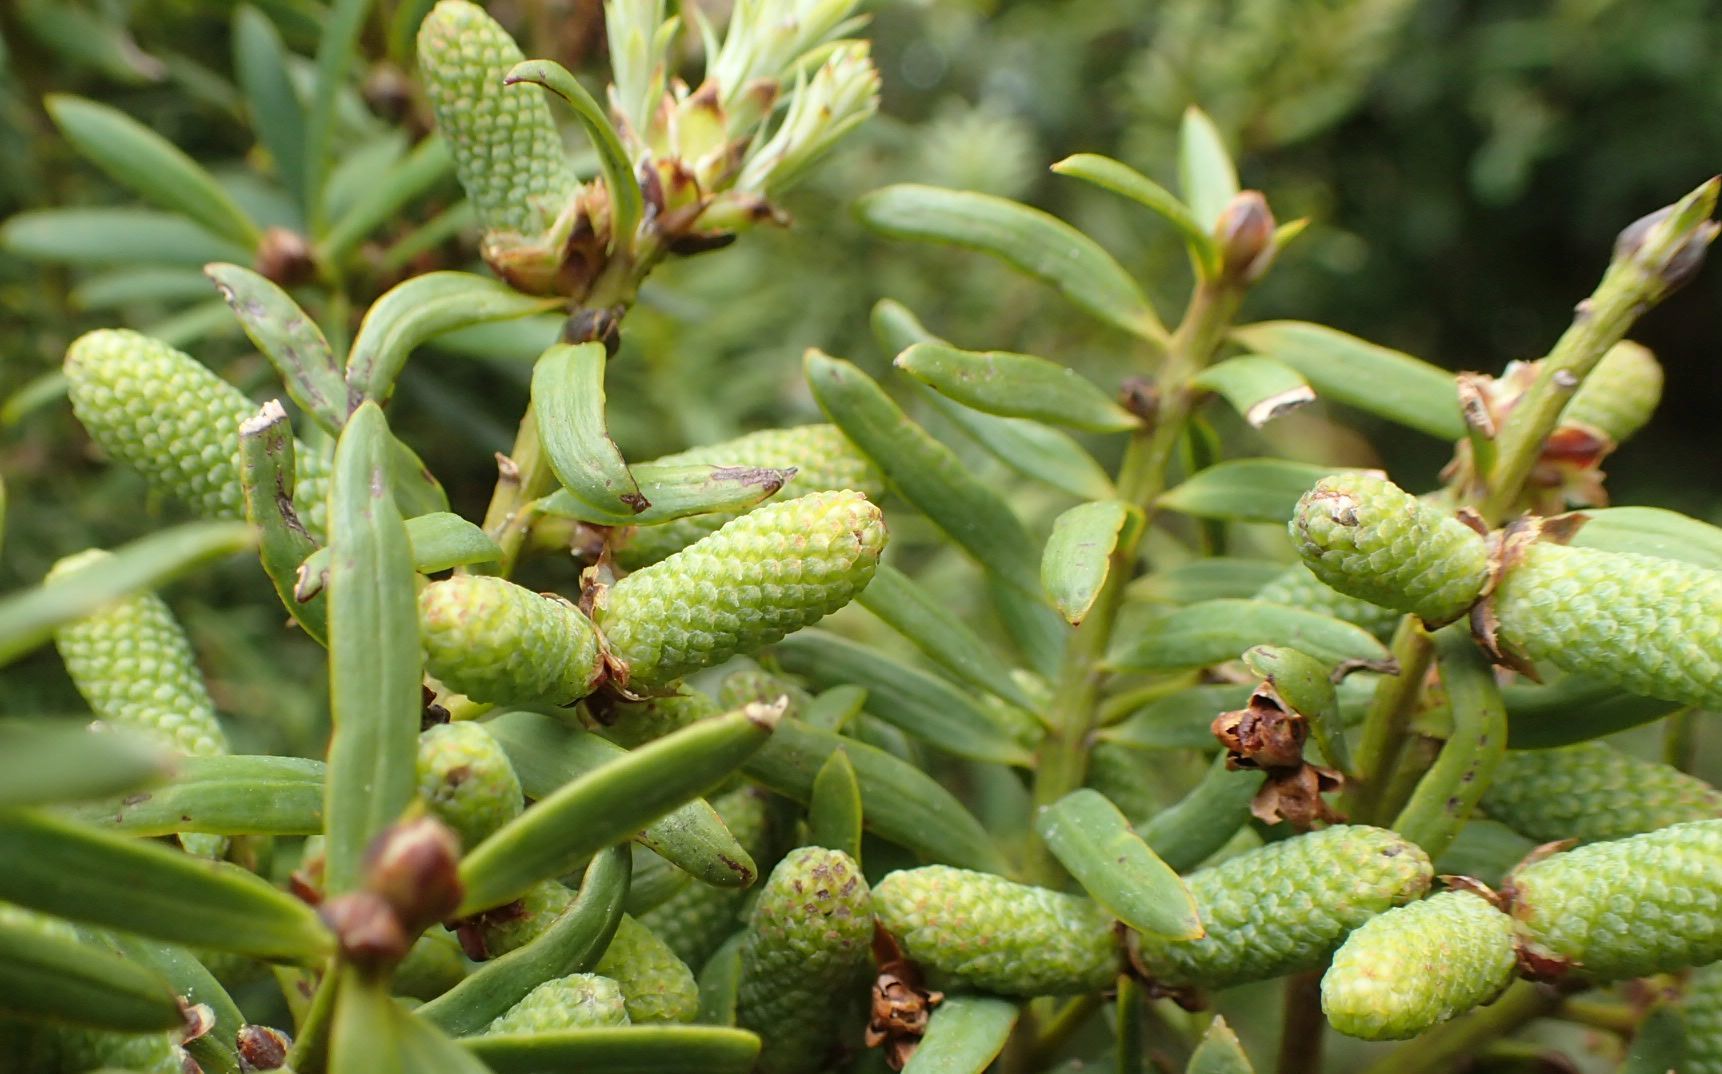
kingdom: Plantae
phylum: Tracheophyta
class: Pinopsida
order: Pinales
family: Podocarpaceae
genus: Podocarpus
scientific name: Podocarpus totara
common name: Totara
